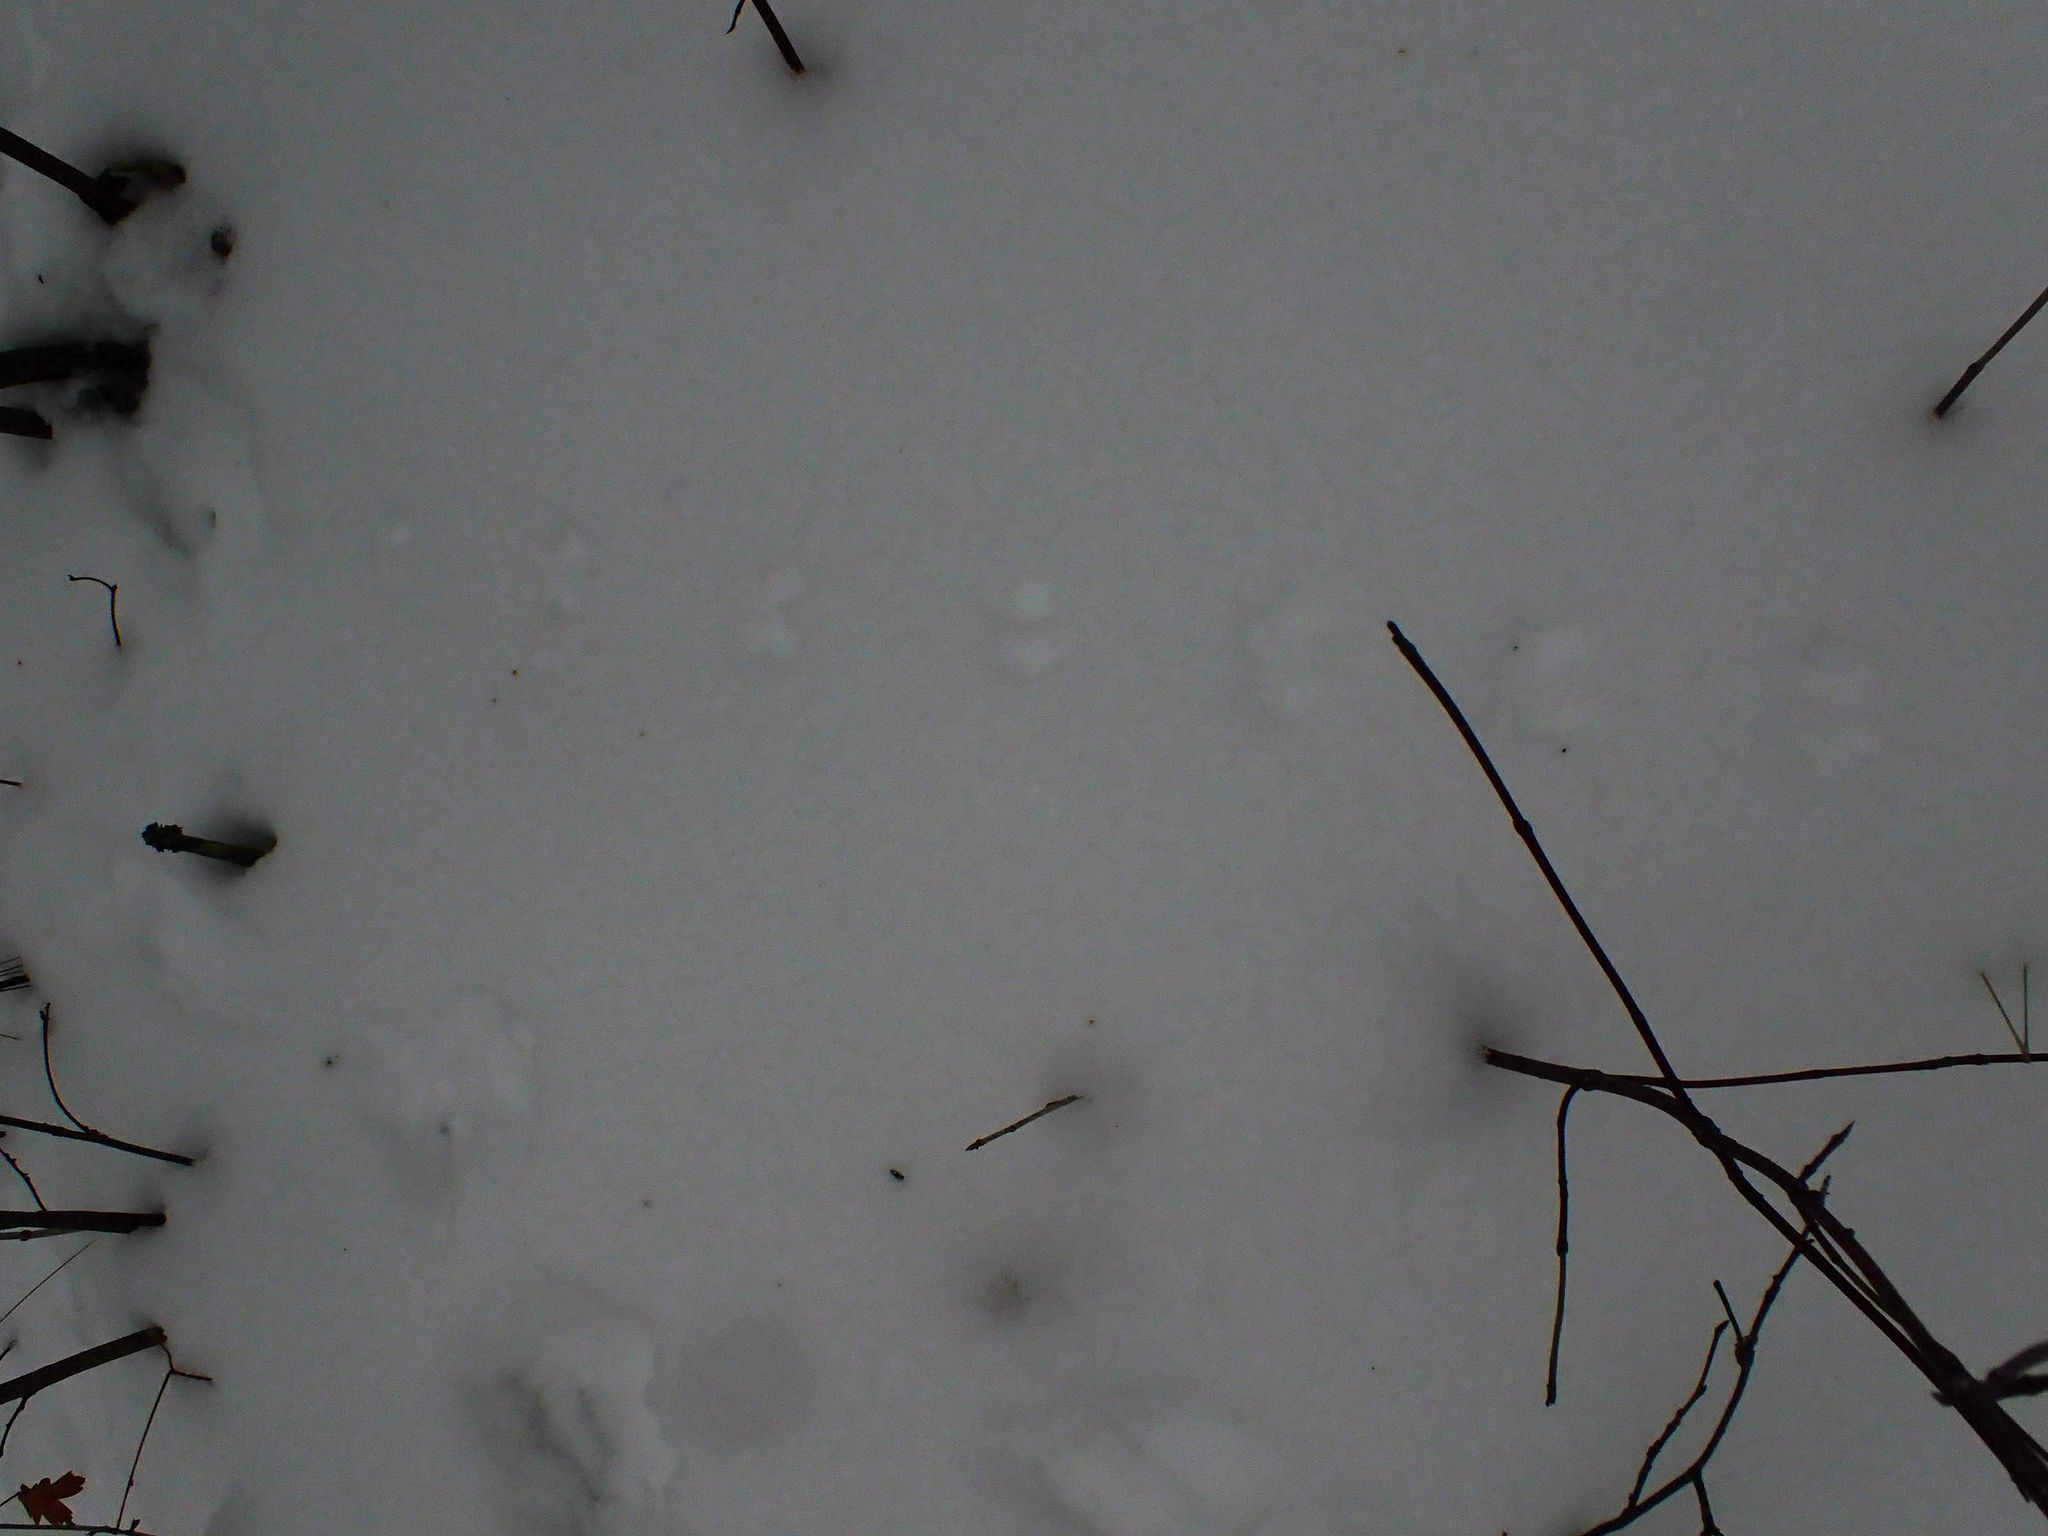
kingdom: Animalia
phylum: Chordata
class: Mammalia
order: Rodentia
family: Cricetidae
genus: Peromyscus
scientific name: Peromyscus maniculatus
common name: Deer mouse
